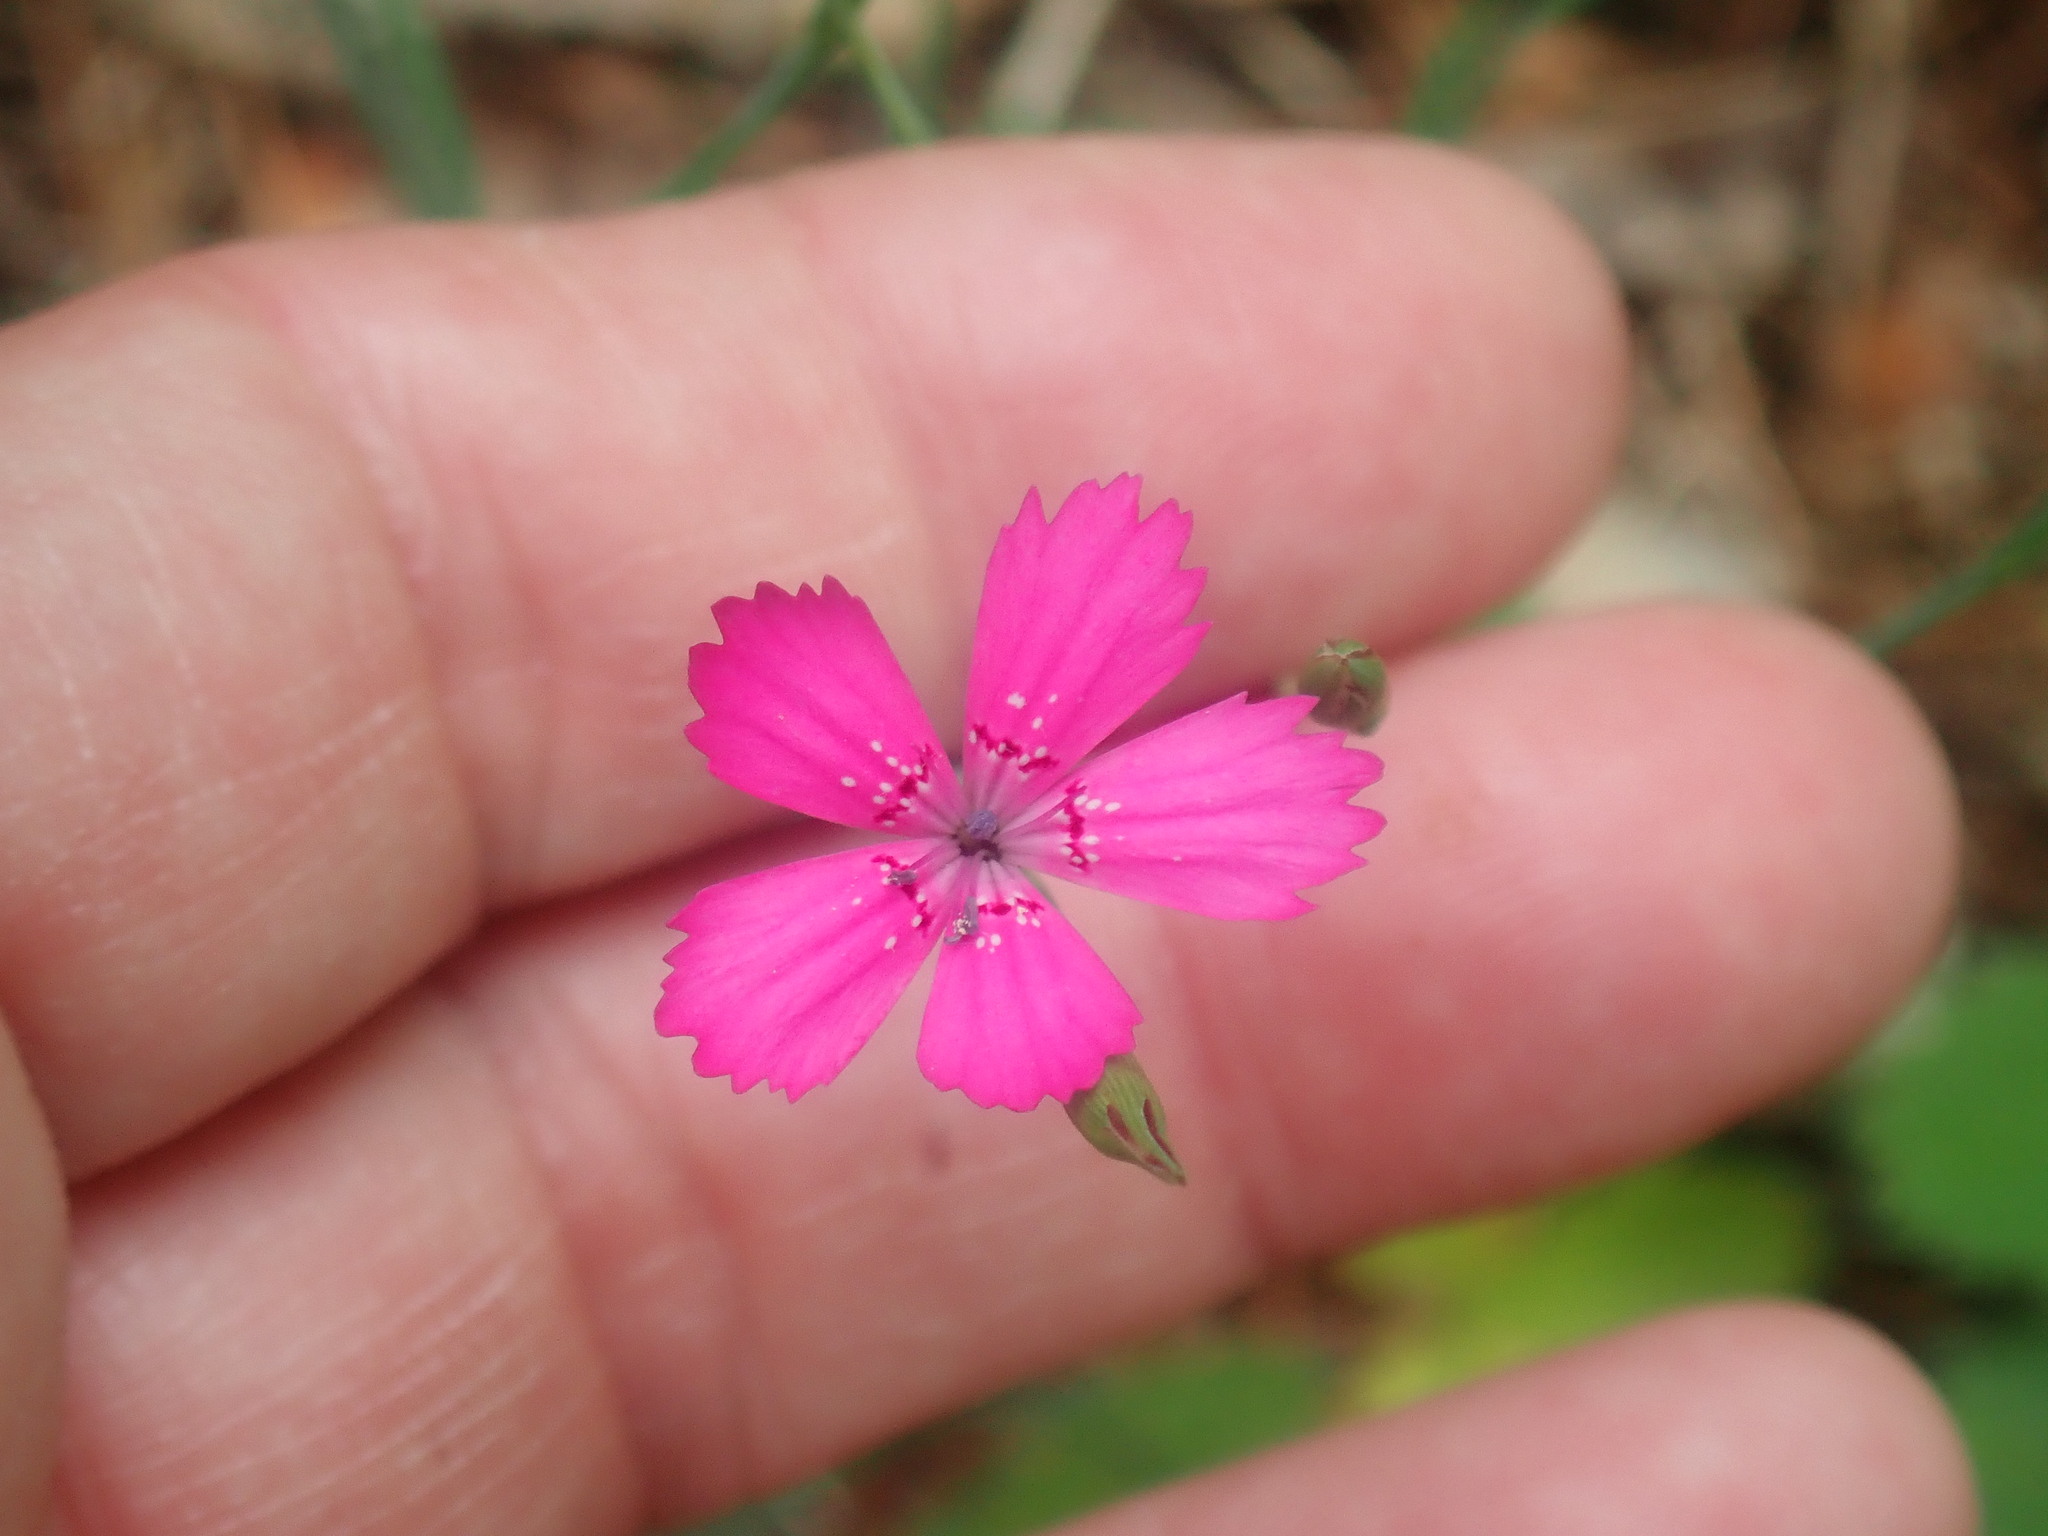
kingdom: Plantae
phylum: Tracheophyta
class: Magnoliopsida
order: Caryophyllales
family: Caryophyllaceae
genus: Dianthus
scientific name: Dianthus deltoides
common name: Maiden pink
